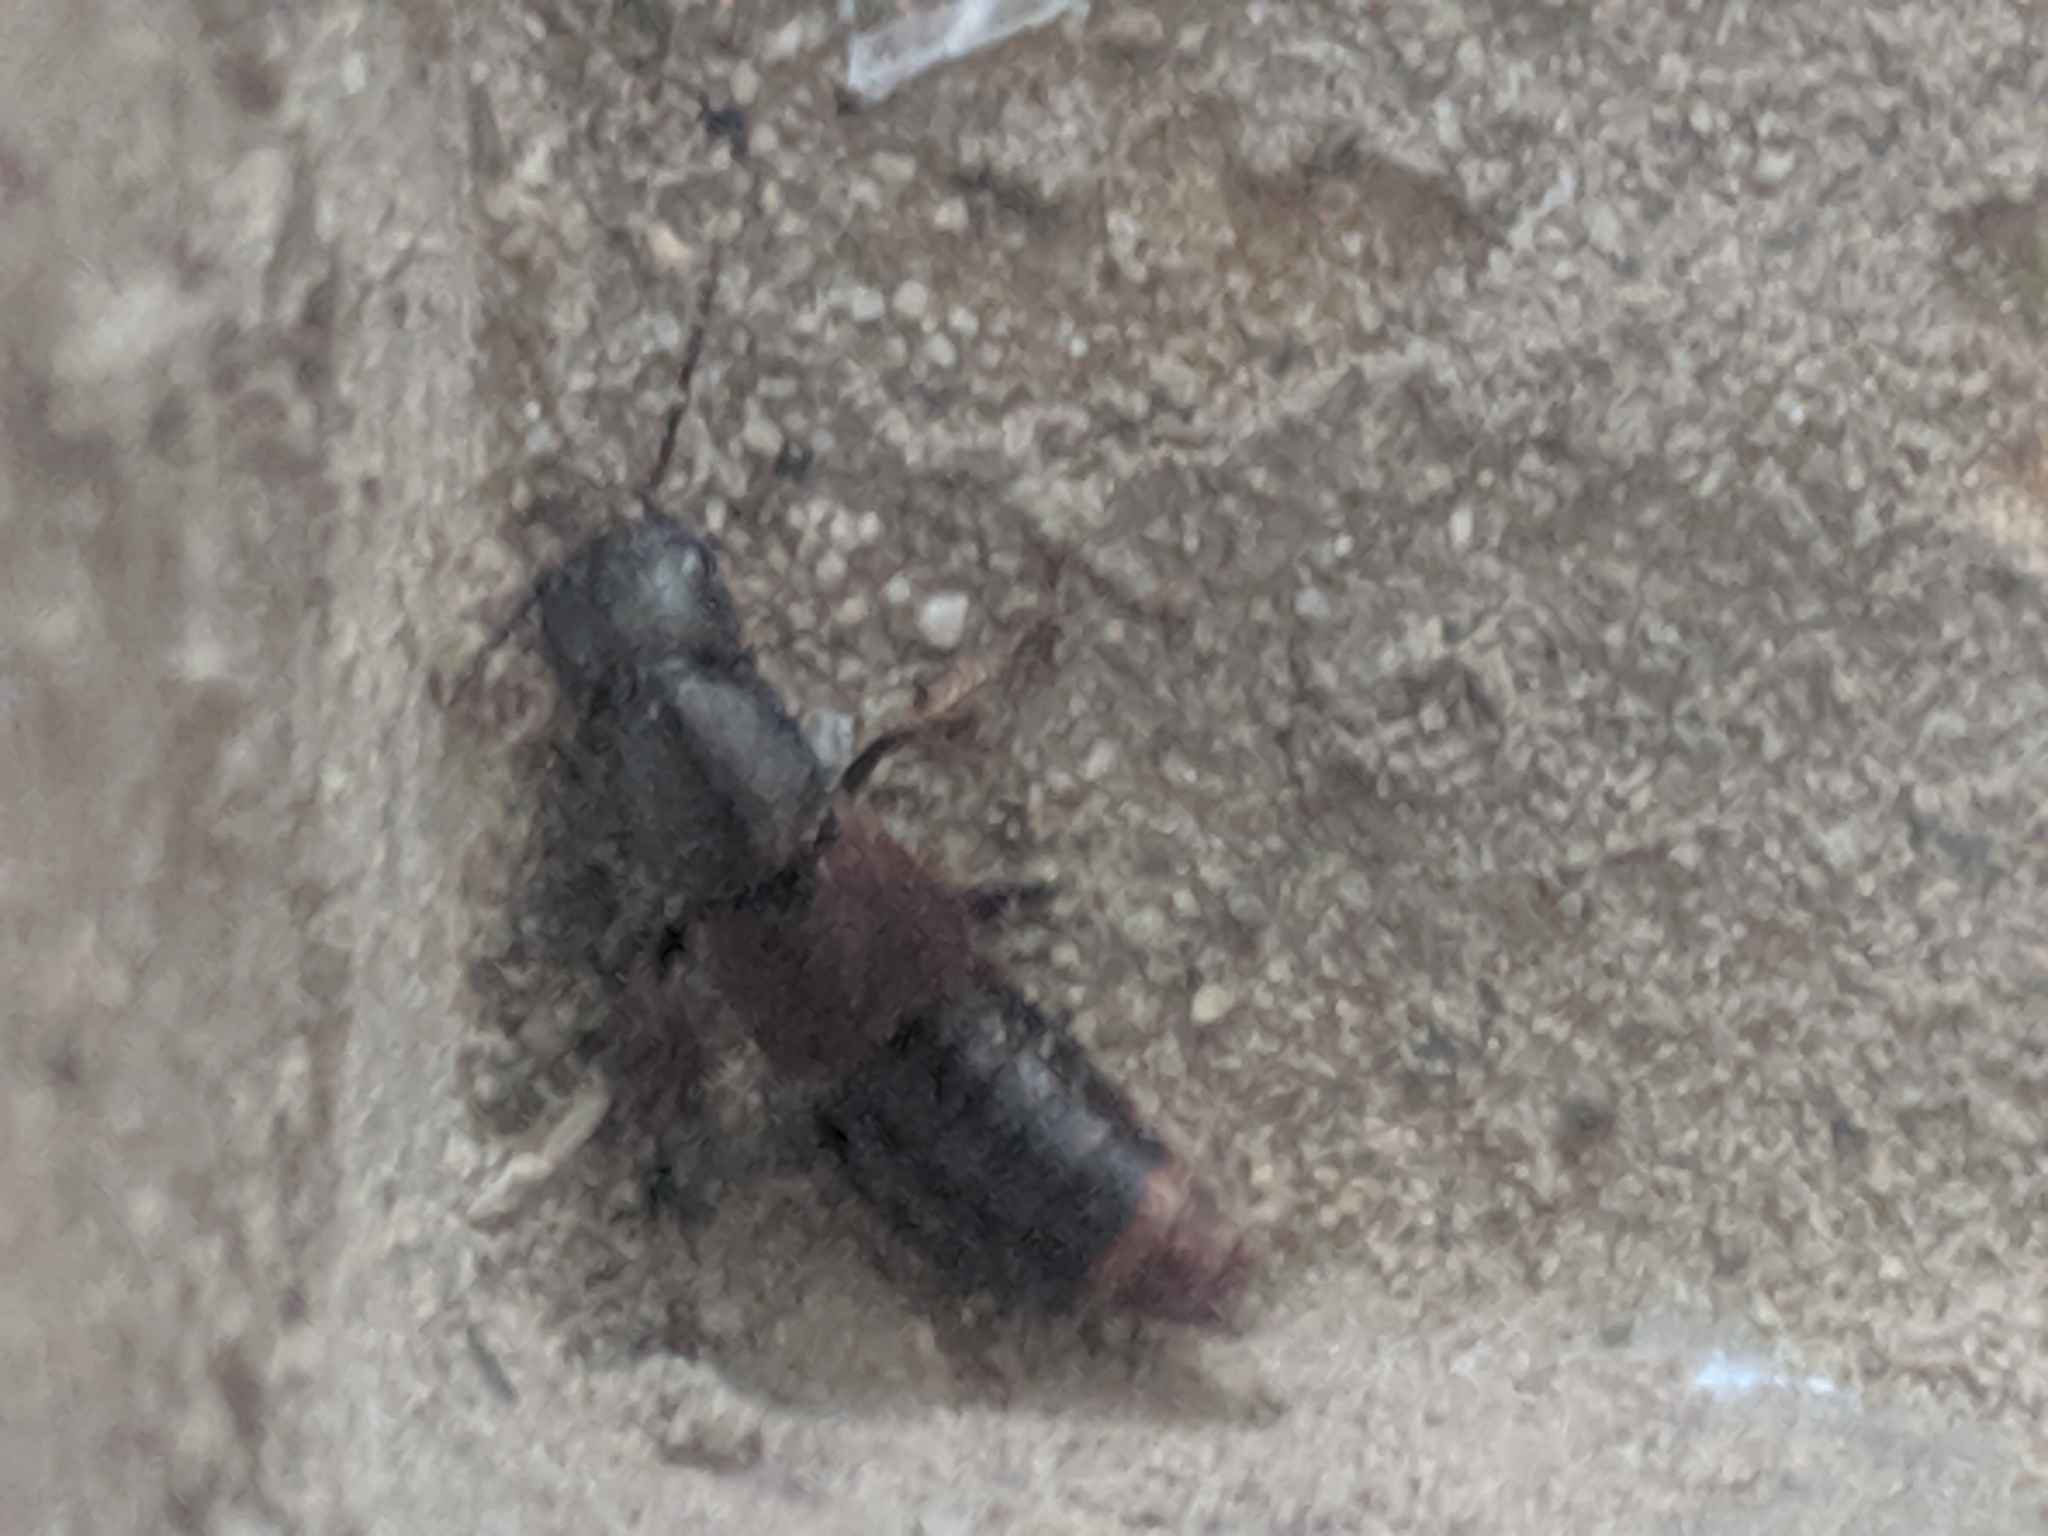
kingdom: Animalia
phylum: Arthropoda
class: Insecta
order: Coleoptera
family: Staphylinidae
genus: Platydracus
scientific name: Platydracus
